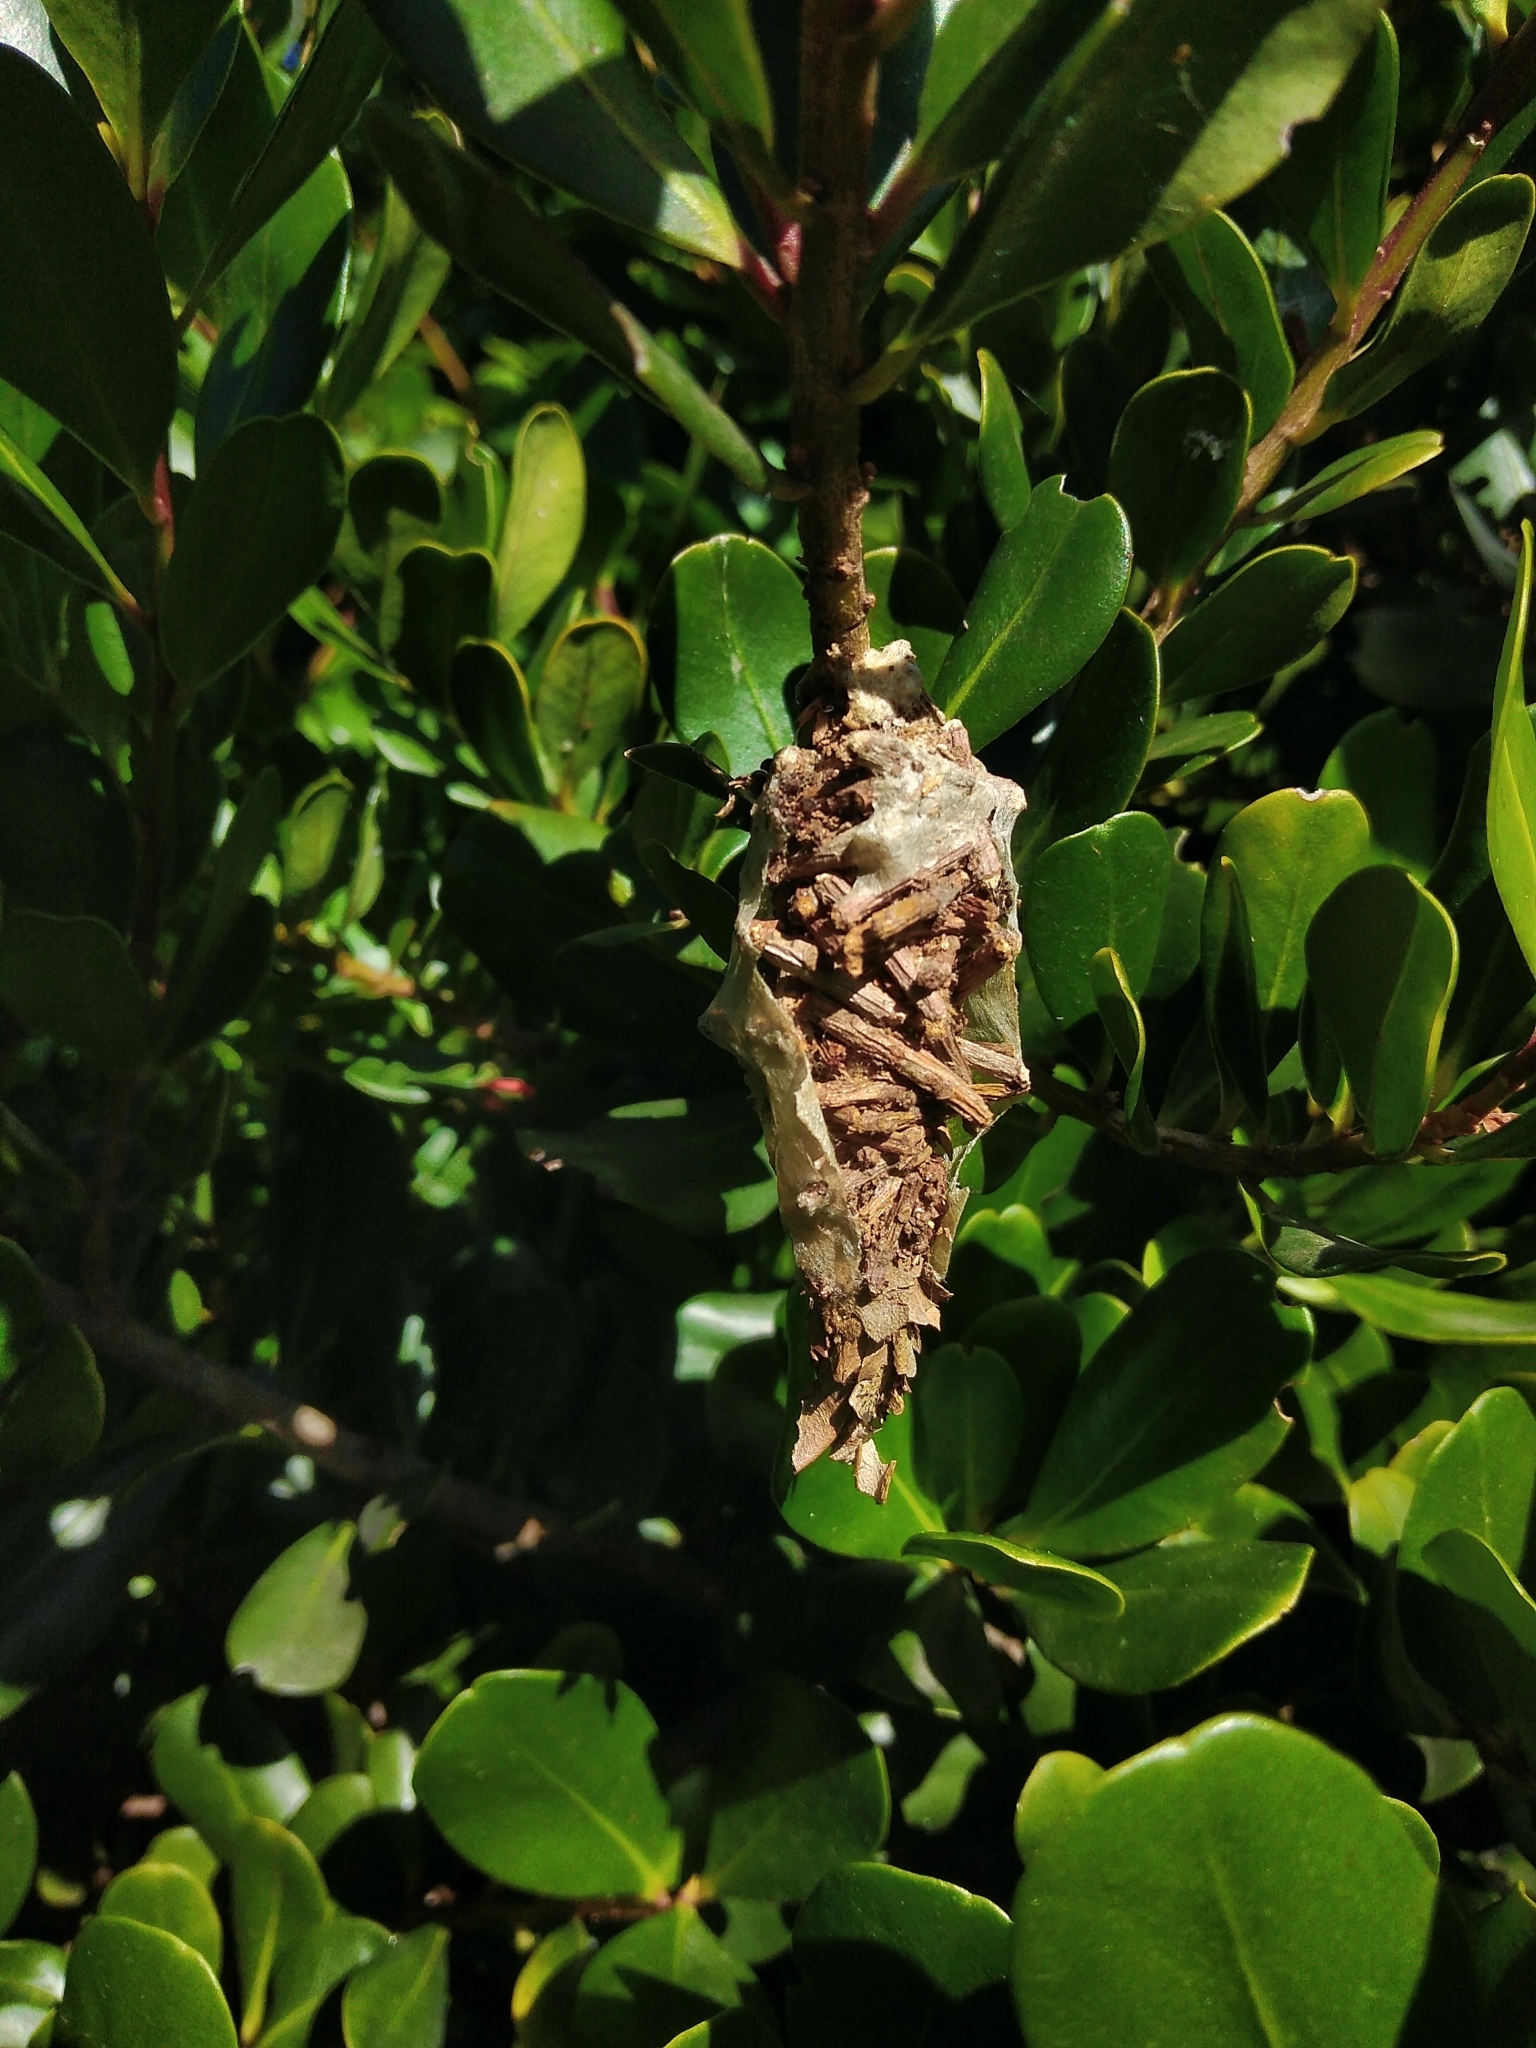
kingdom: Animalia
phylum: Arthropoda
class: Insecta
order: Lepidoptera
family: Psychidae
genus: Oiketicus
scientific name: Oiketicus
